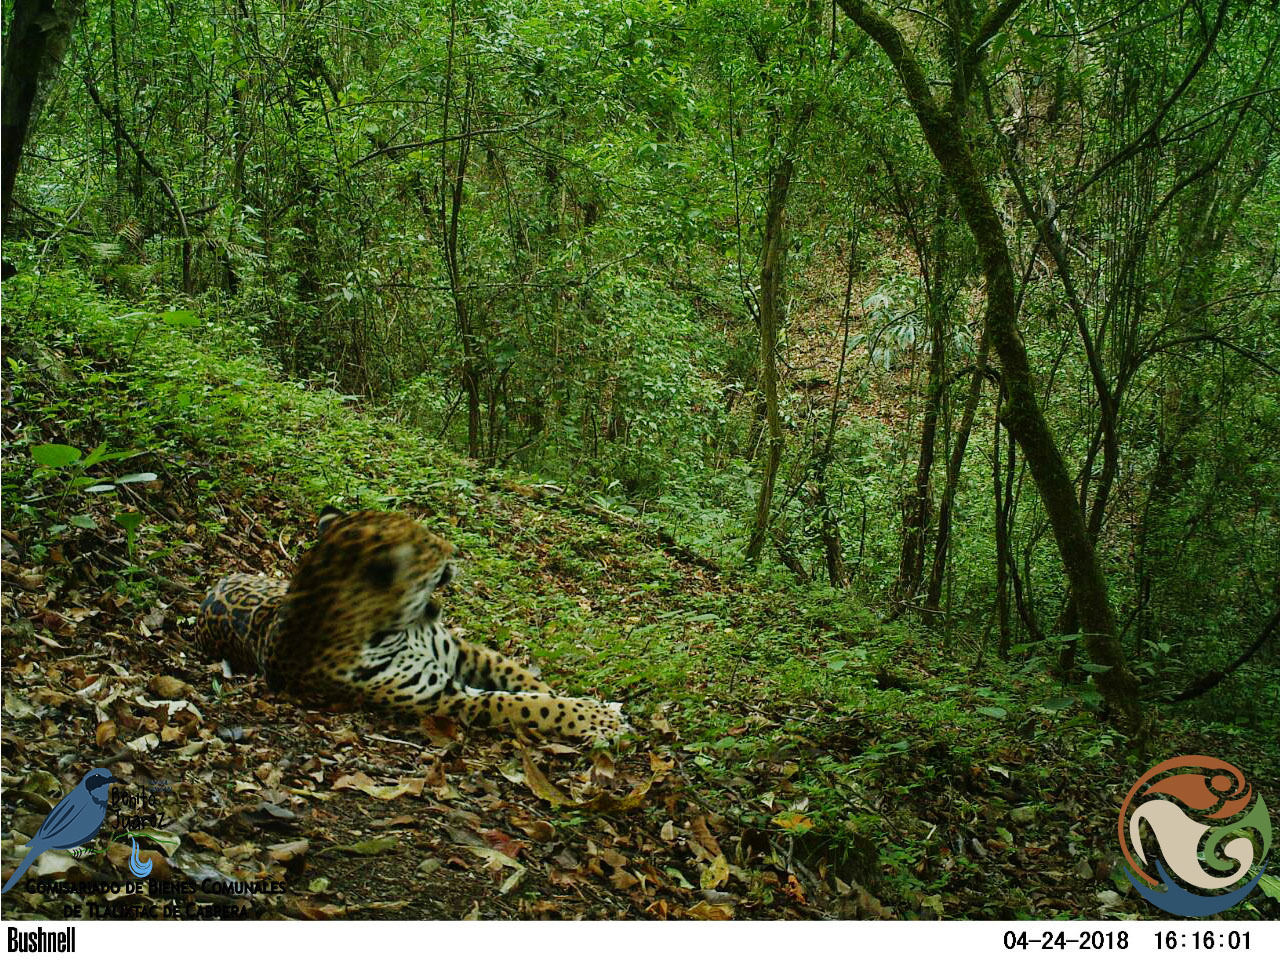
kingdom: Animalia
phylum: Chordata
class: Mammalia
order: Carnivora
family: Felidae
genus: Panthera
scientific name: Panthera onca
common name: Jaguar
